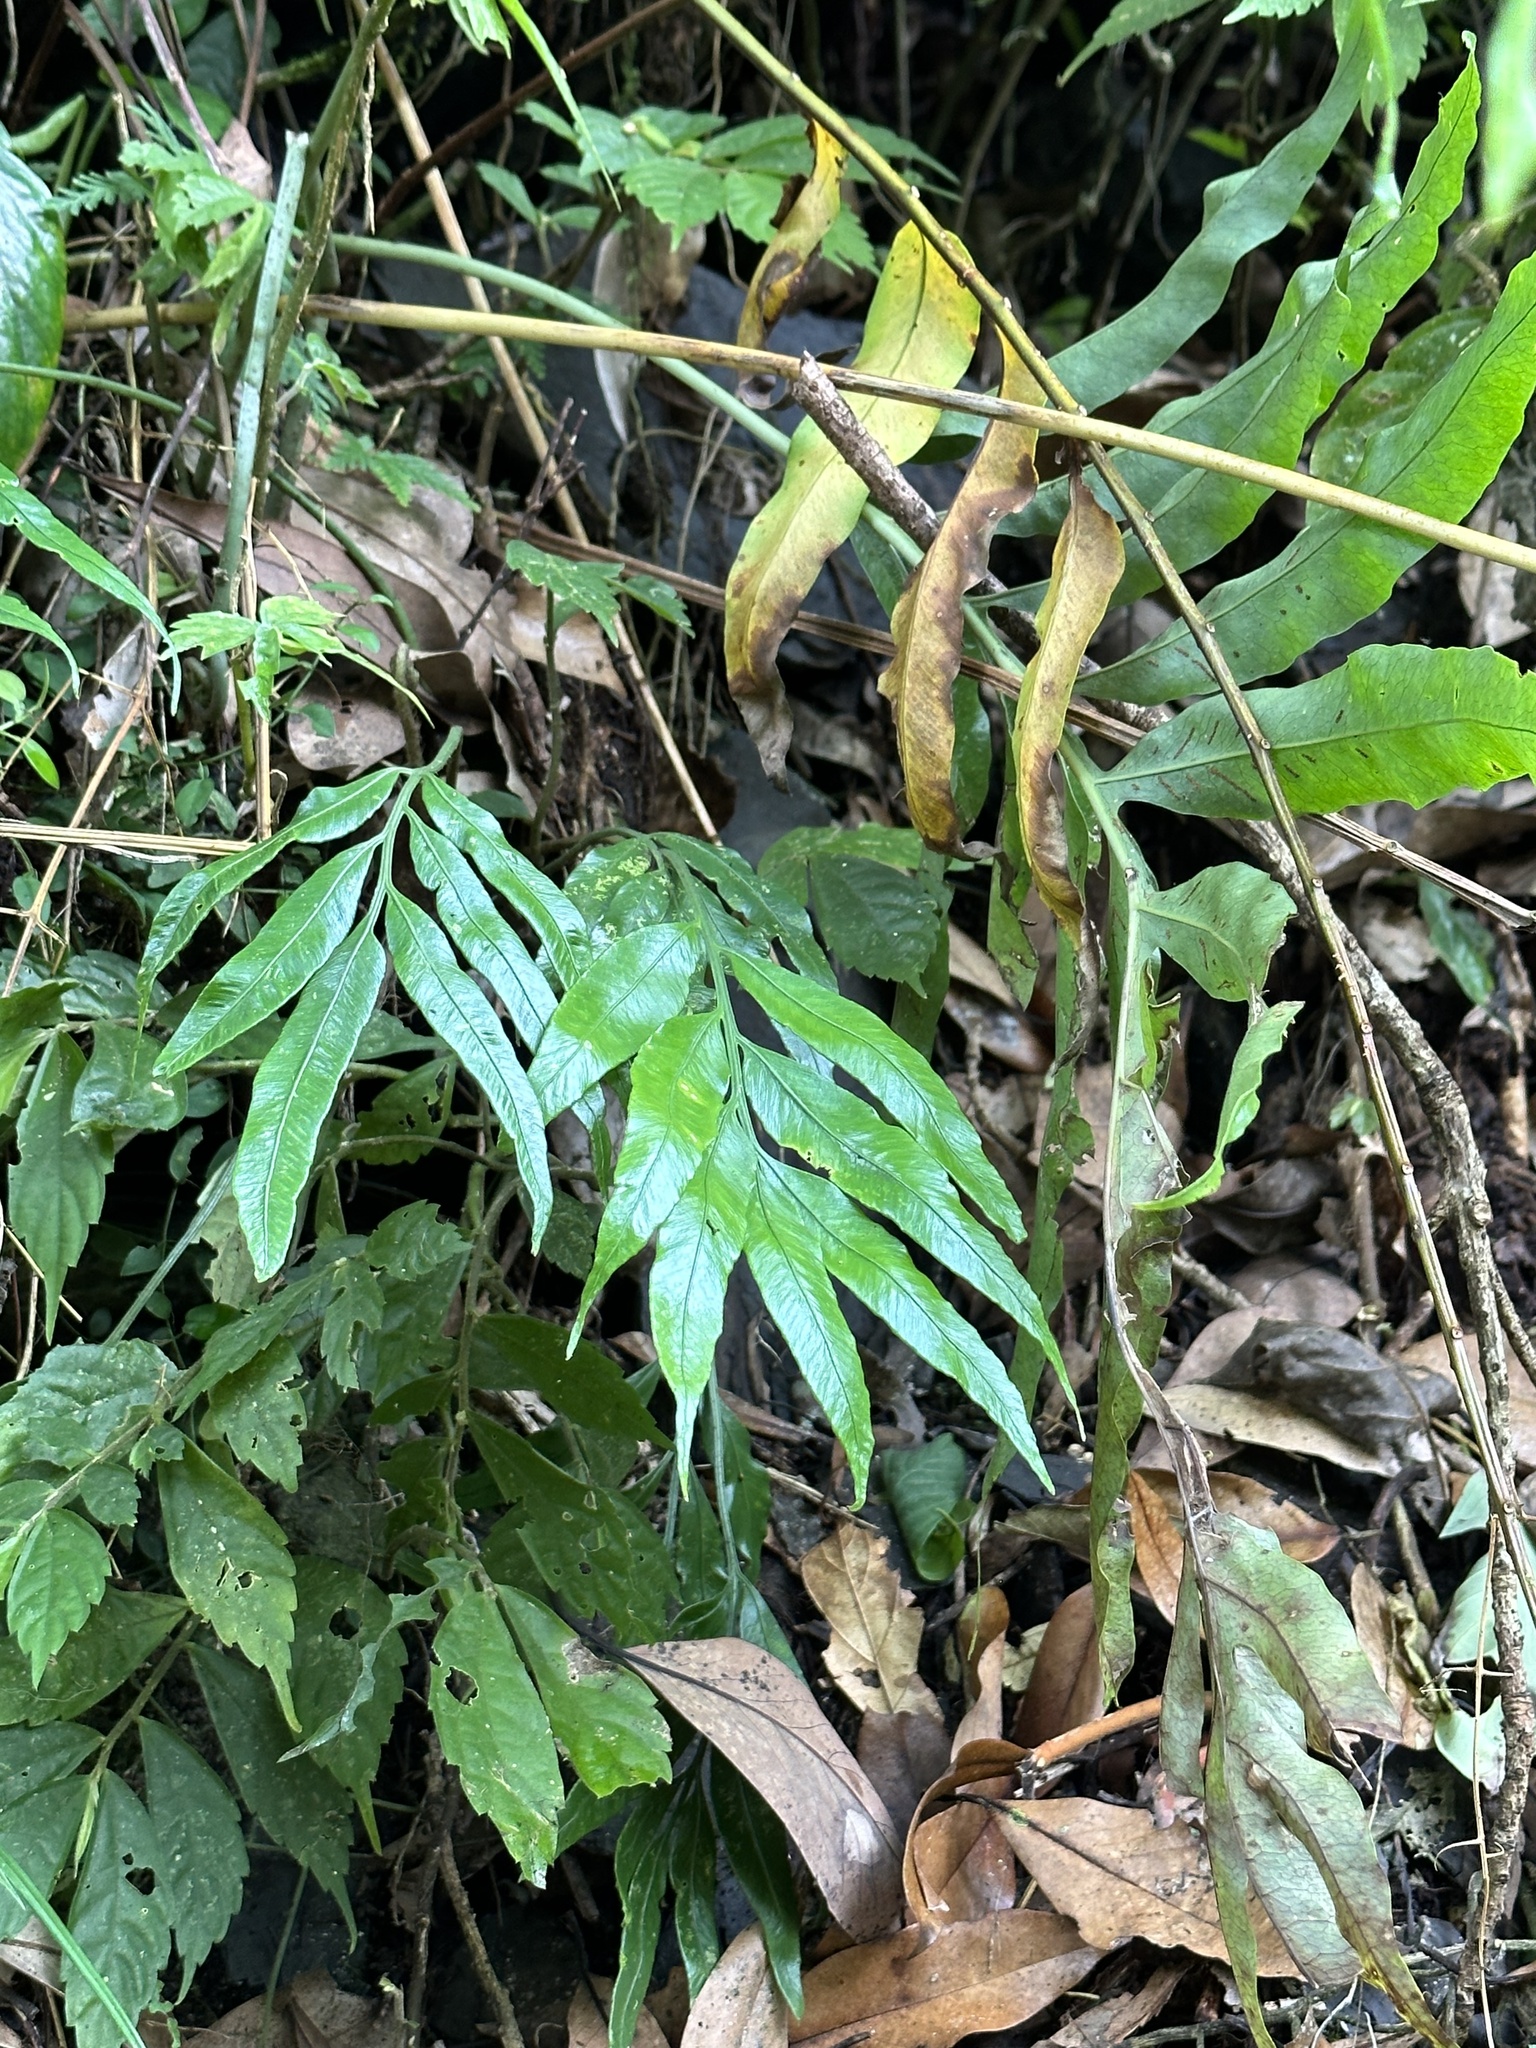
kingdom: Plantae
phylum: Tracheophyta
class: Polypodiopsida
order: Polypodiales
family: Aspleniaceae
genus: Asplenium
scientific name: Asplenium formosae
